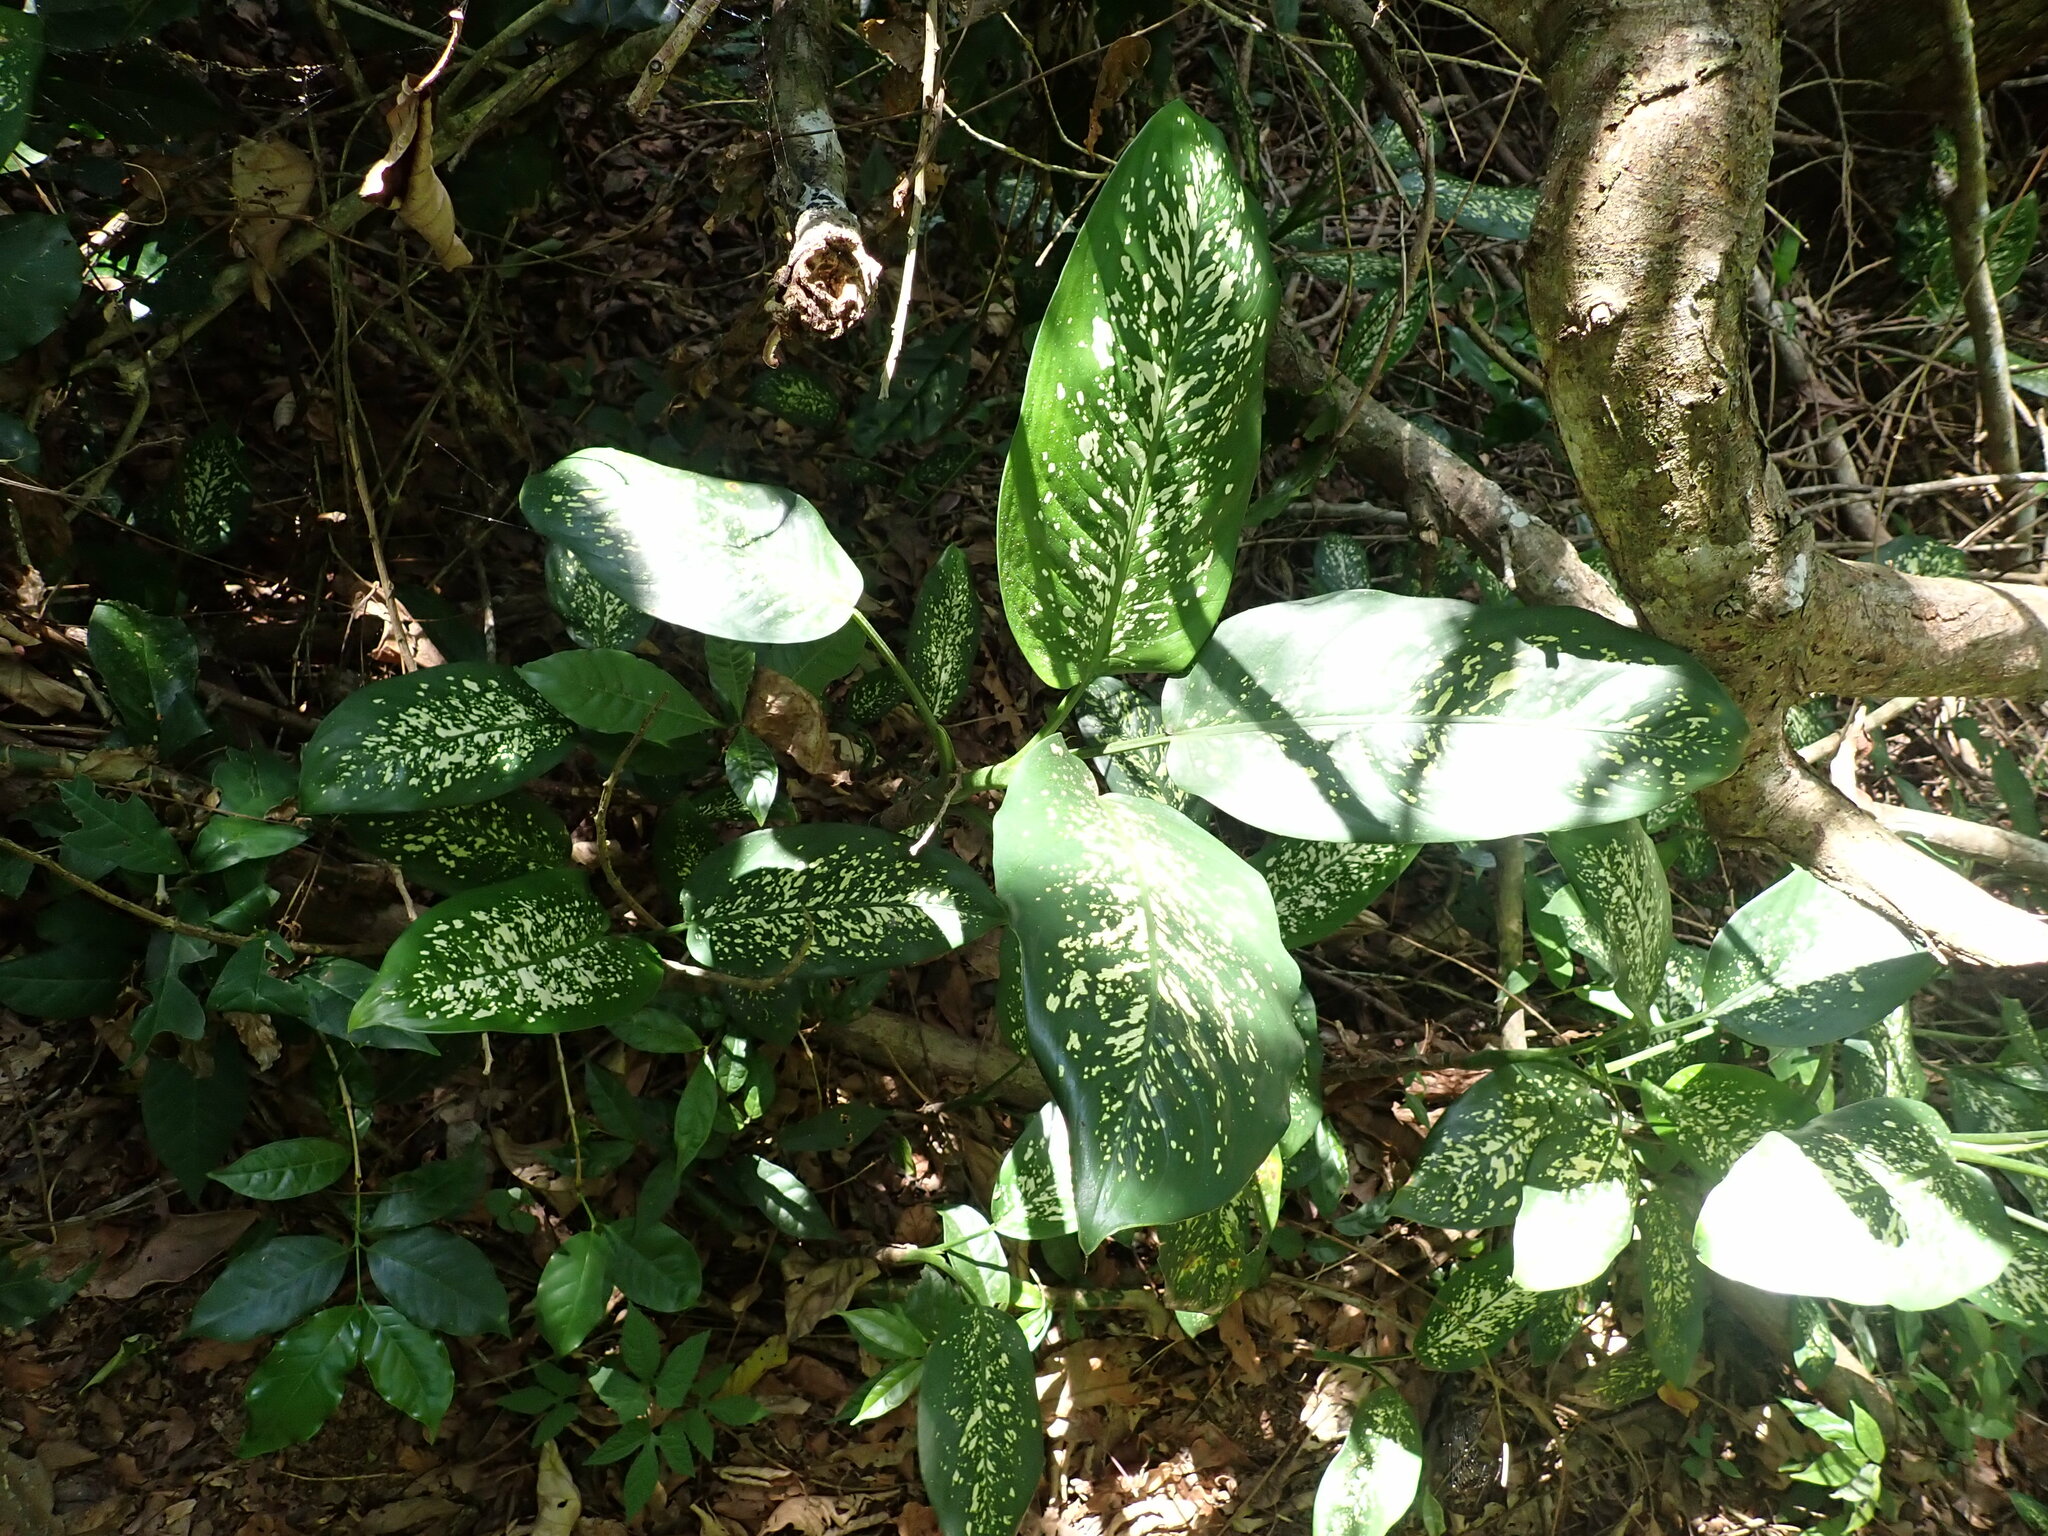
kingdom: Plantae
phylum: Tracheophyta
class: Liliopsida
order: Alismatales
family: Araceae
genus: Dieffenbachia
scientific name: Dieffenbachia seguine
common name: Dumbcane
